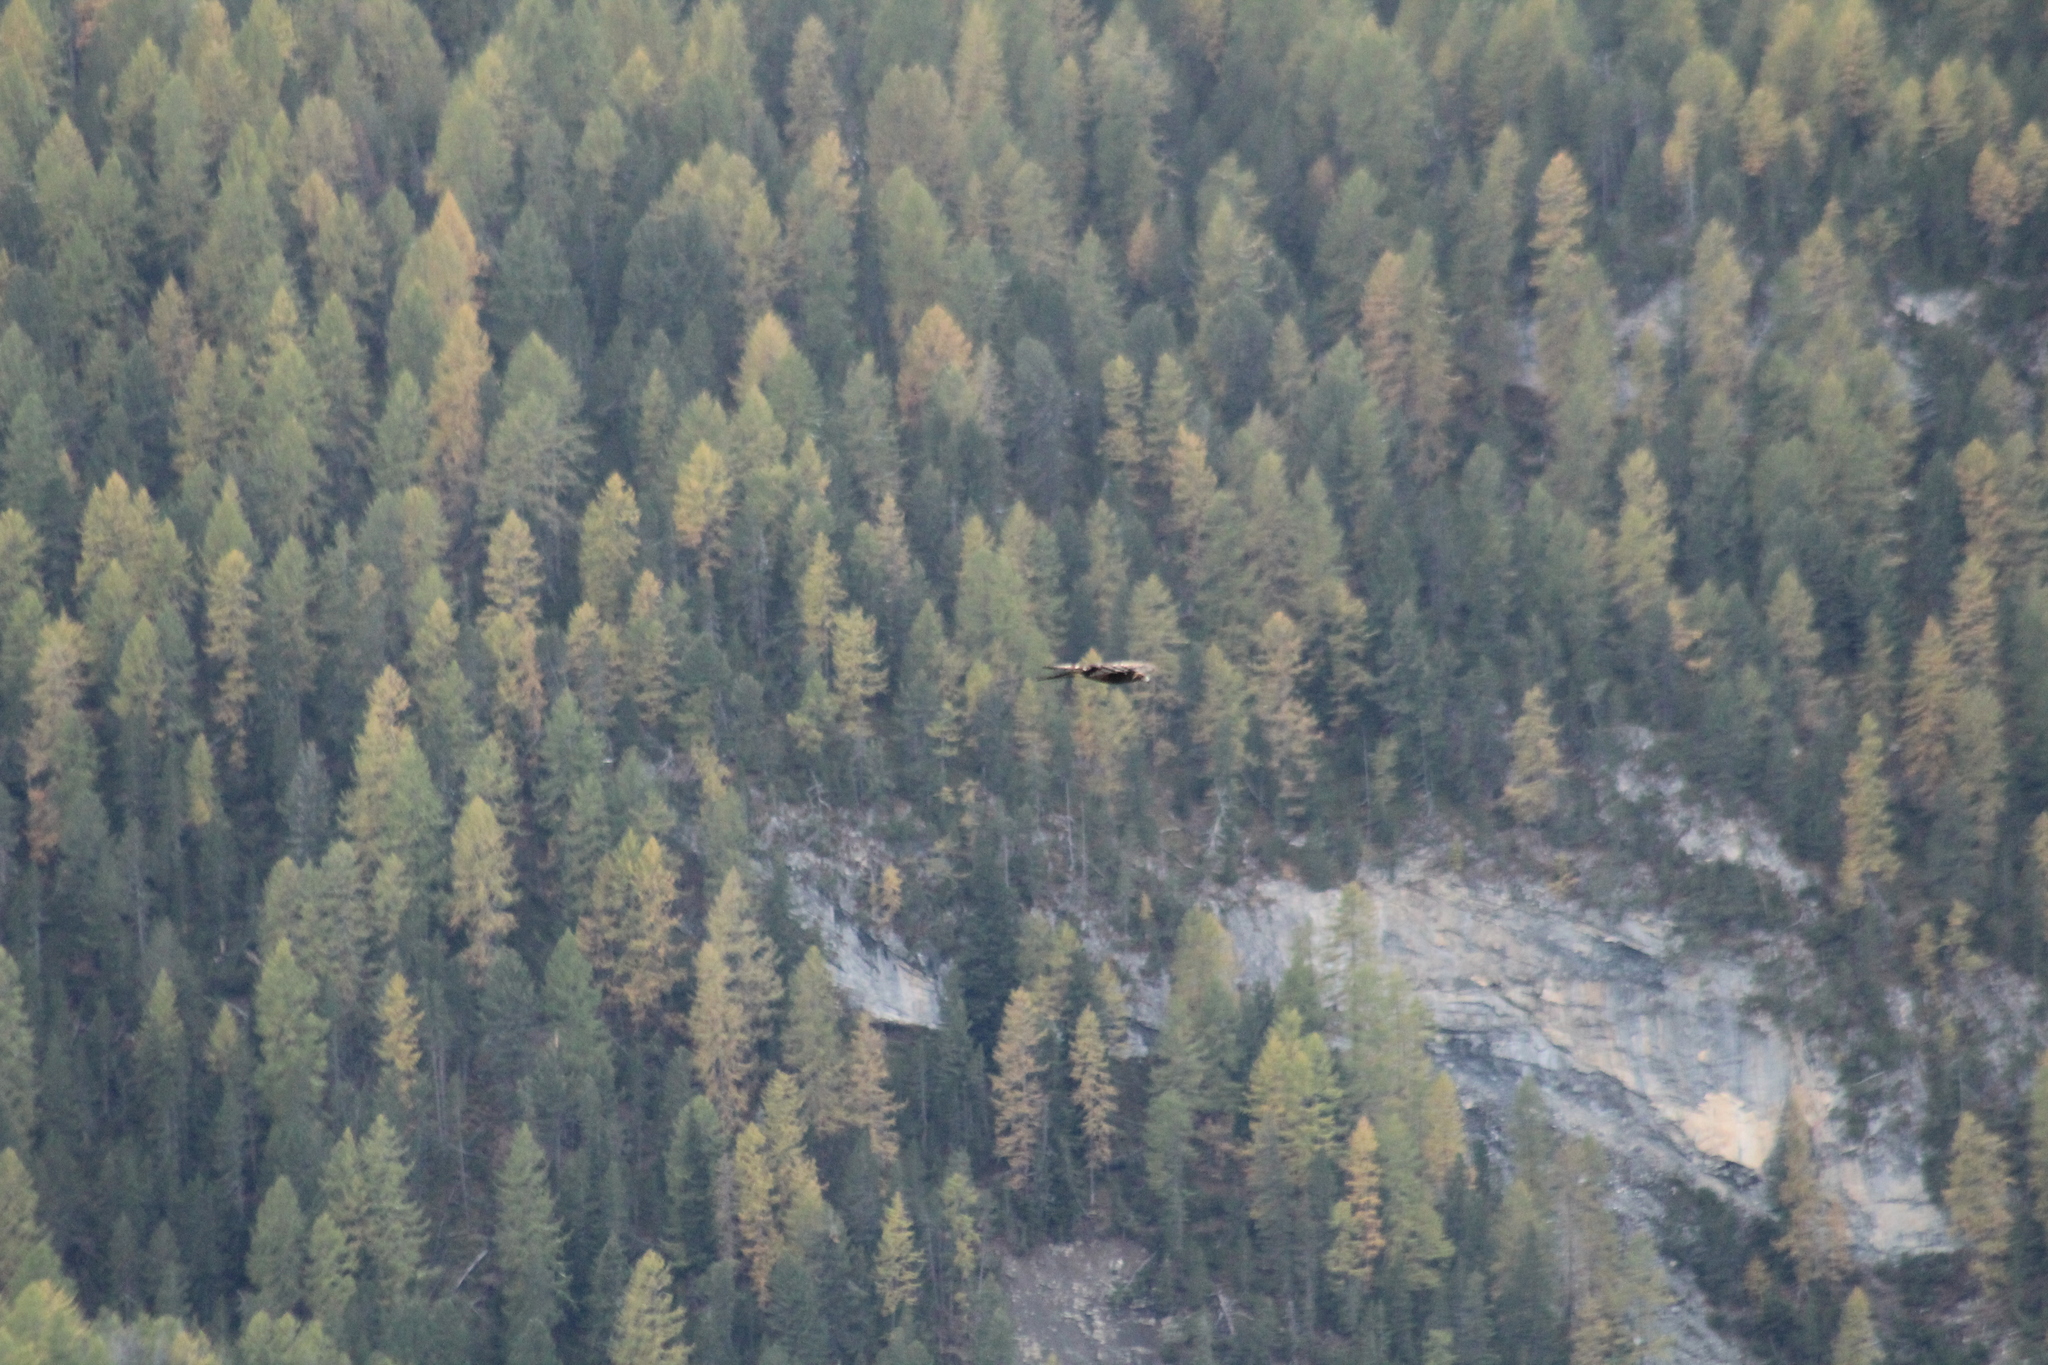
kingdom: Animalia
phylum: Chordata
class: Aves
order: Accipitriformes
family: Accipitridae
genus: Aquila
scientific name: Aquila chrysaetos
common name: Golden eagle
